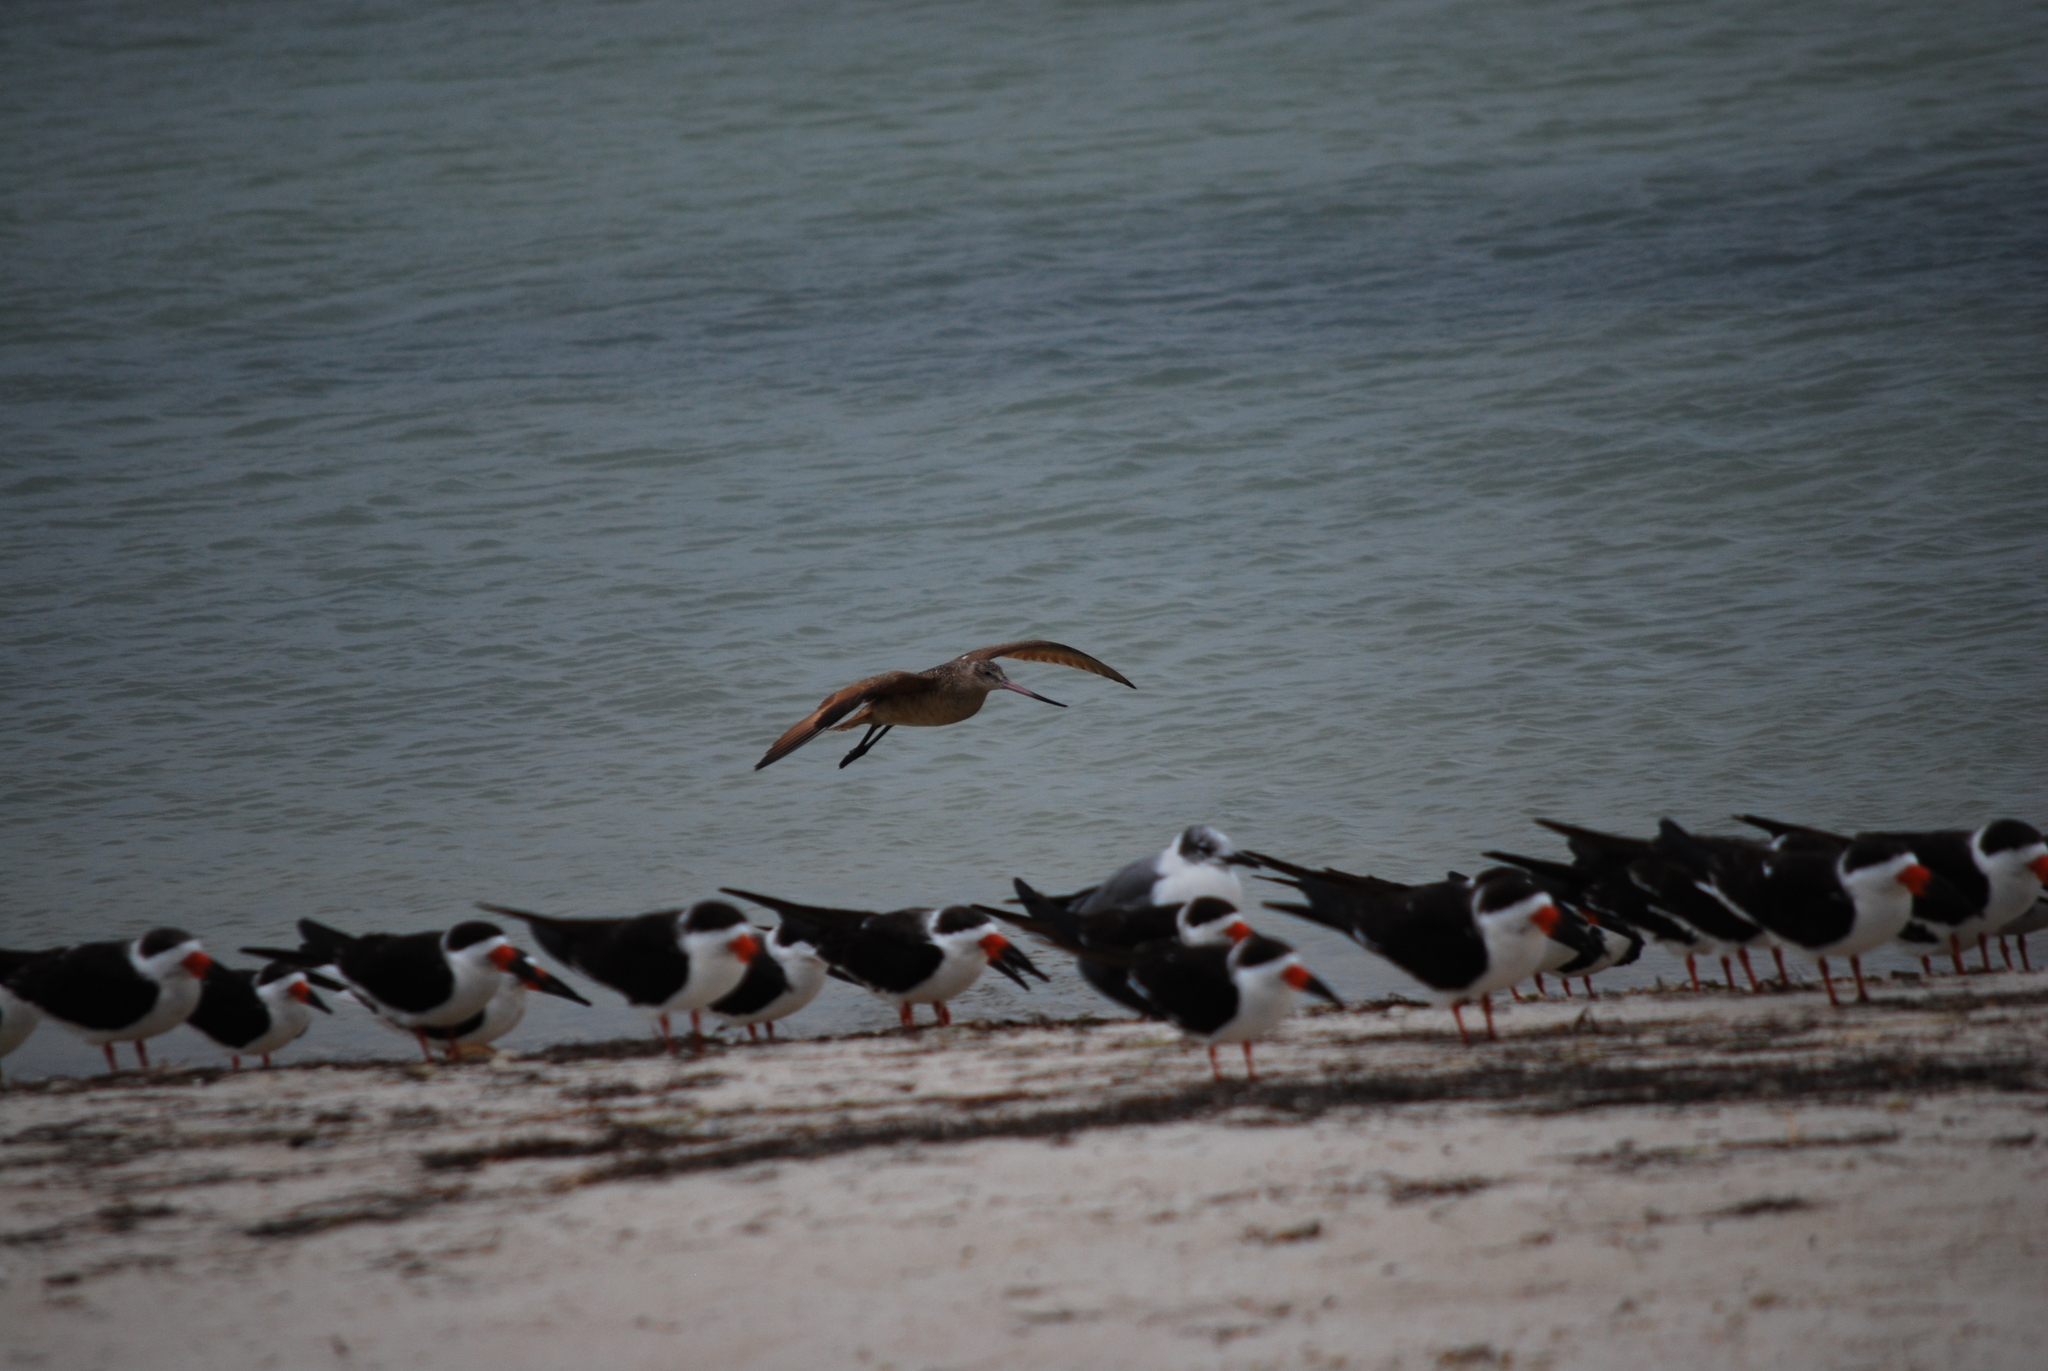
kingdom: Animalia
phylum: Chordata
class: Aves
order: Charadriiformes
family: Scolopacidae
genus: Limosa
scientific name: Limosa fedoa
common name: Marbled godwit
